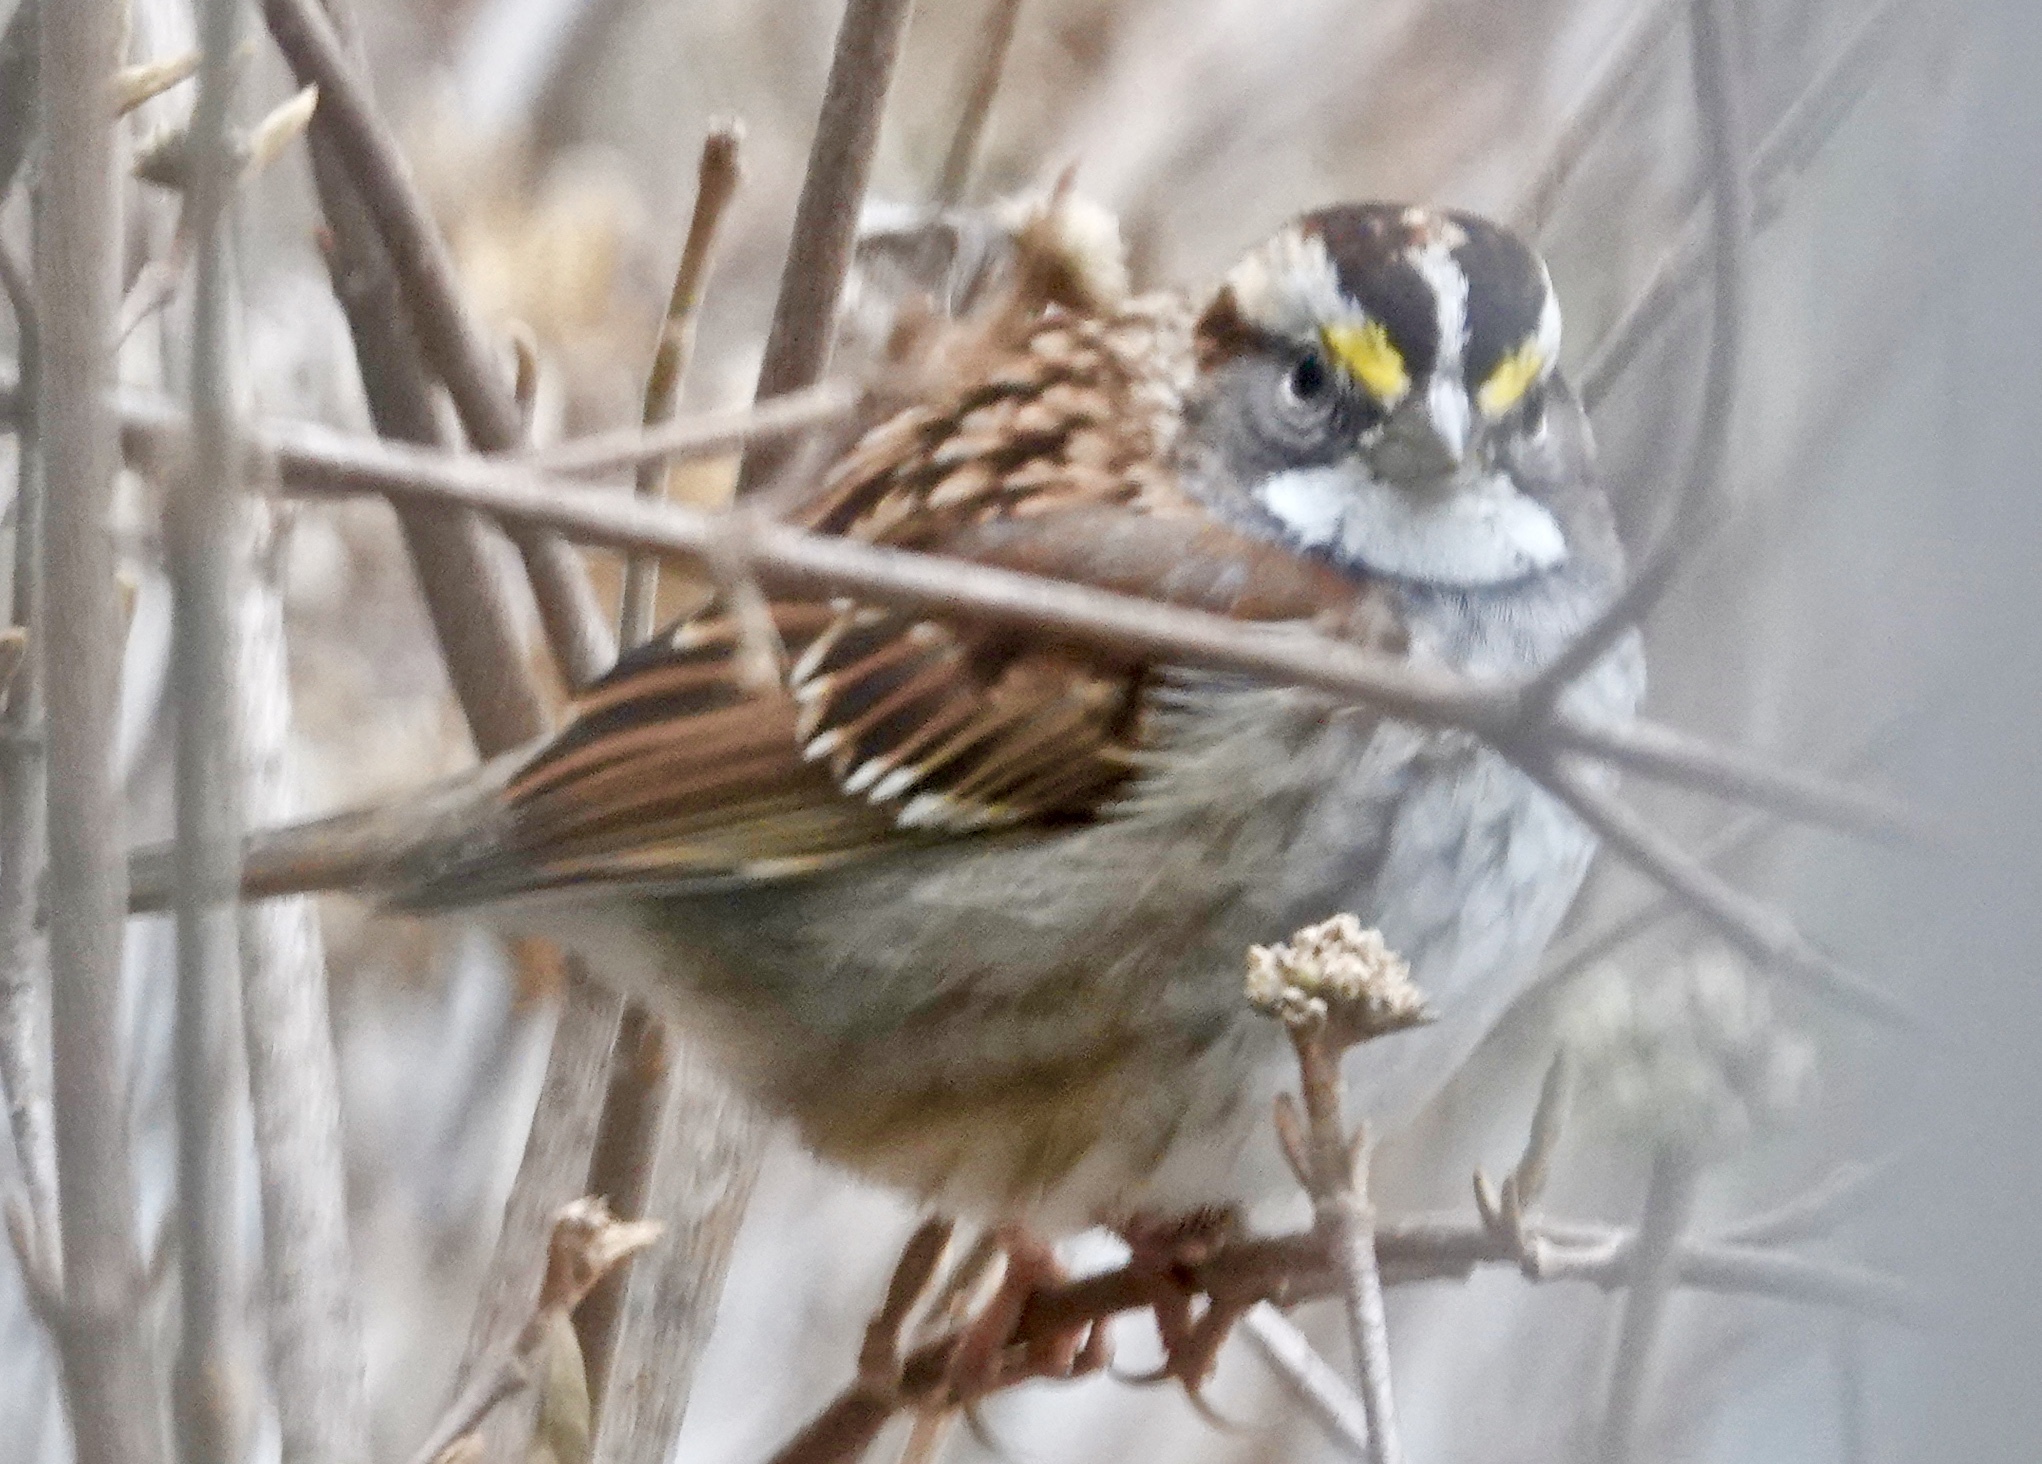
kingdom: Animalia
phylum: Chordata
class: Aves
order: Passeriformes
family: Passerellidae
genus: Zonotrichia
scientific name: Zonotrichia albicollis
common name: White-throated sparrow
